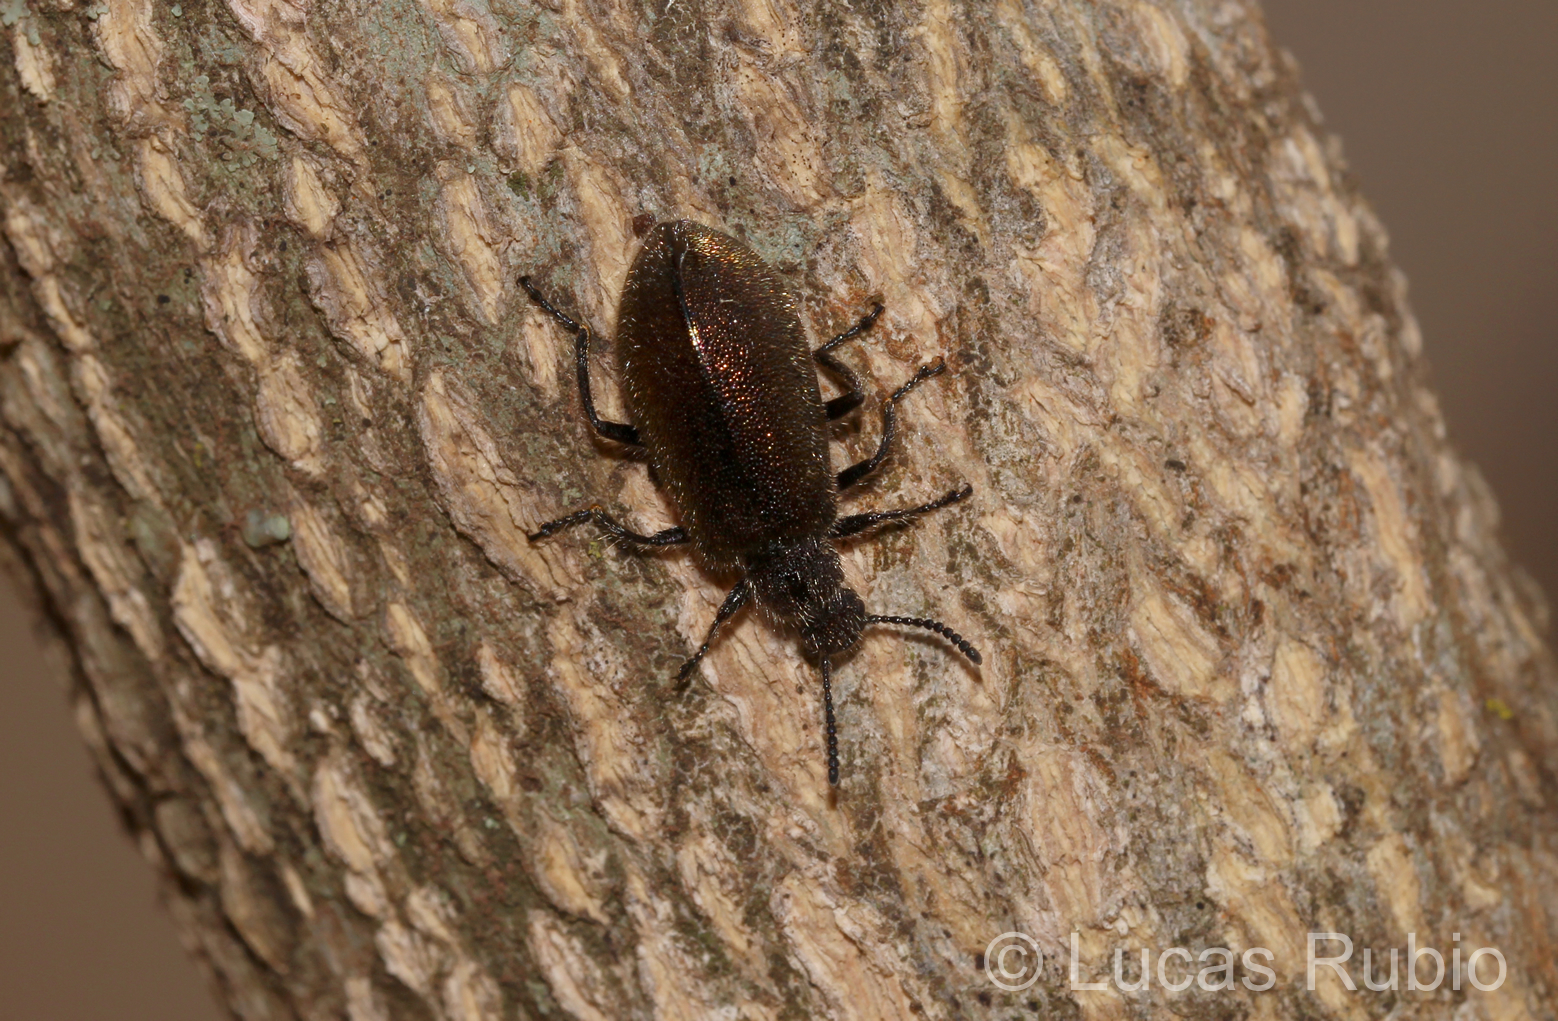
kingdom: Animalia
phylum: Arthropoda
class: Insecta
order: Coleoptera
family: Tenebrionidae
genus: Lagria
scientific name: Lagria villosa
